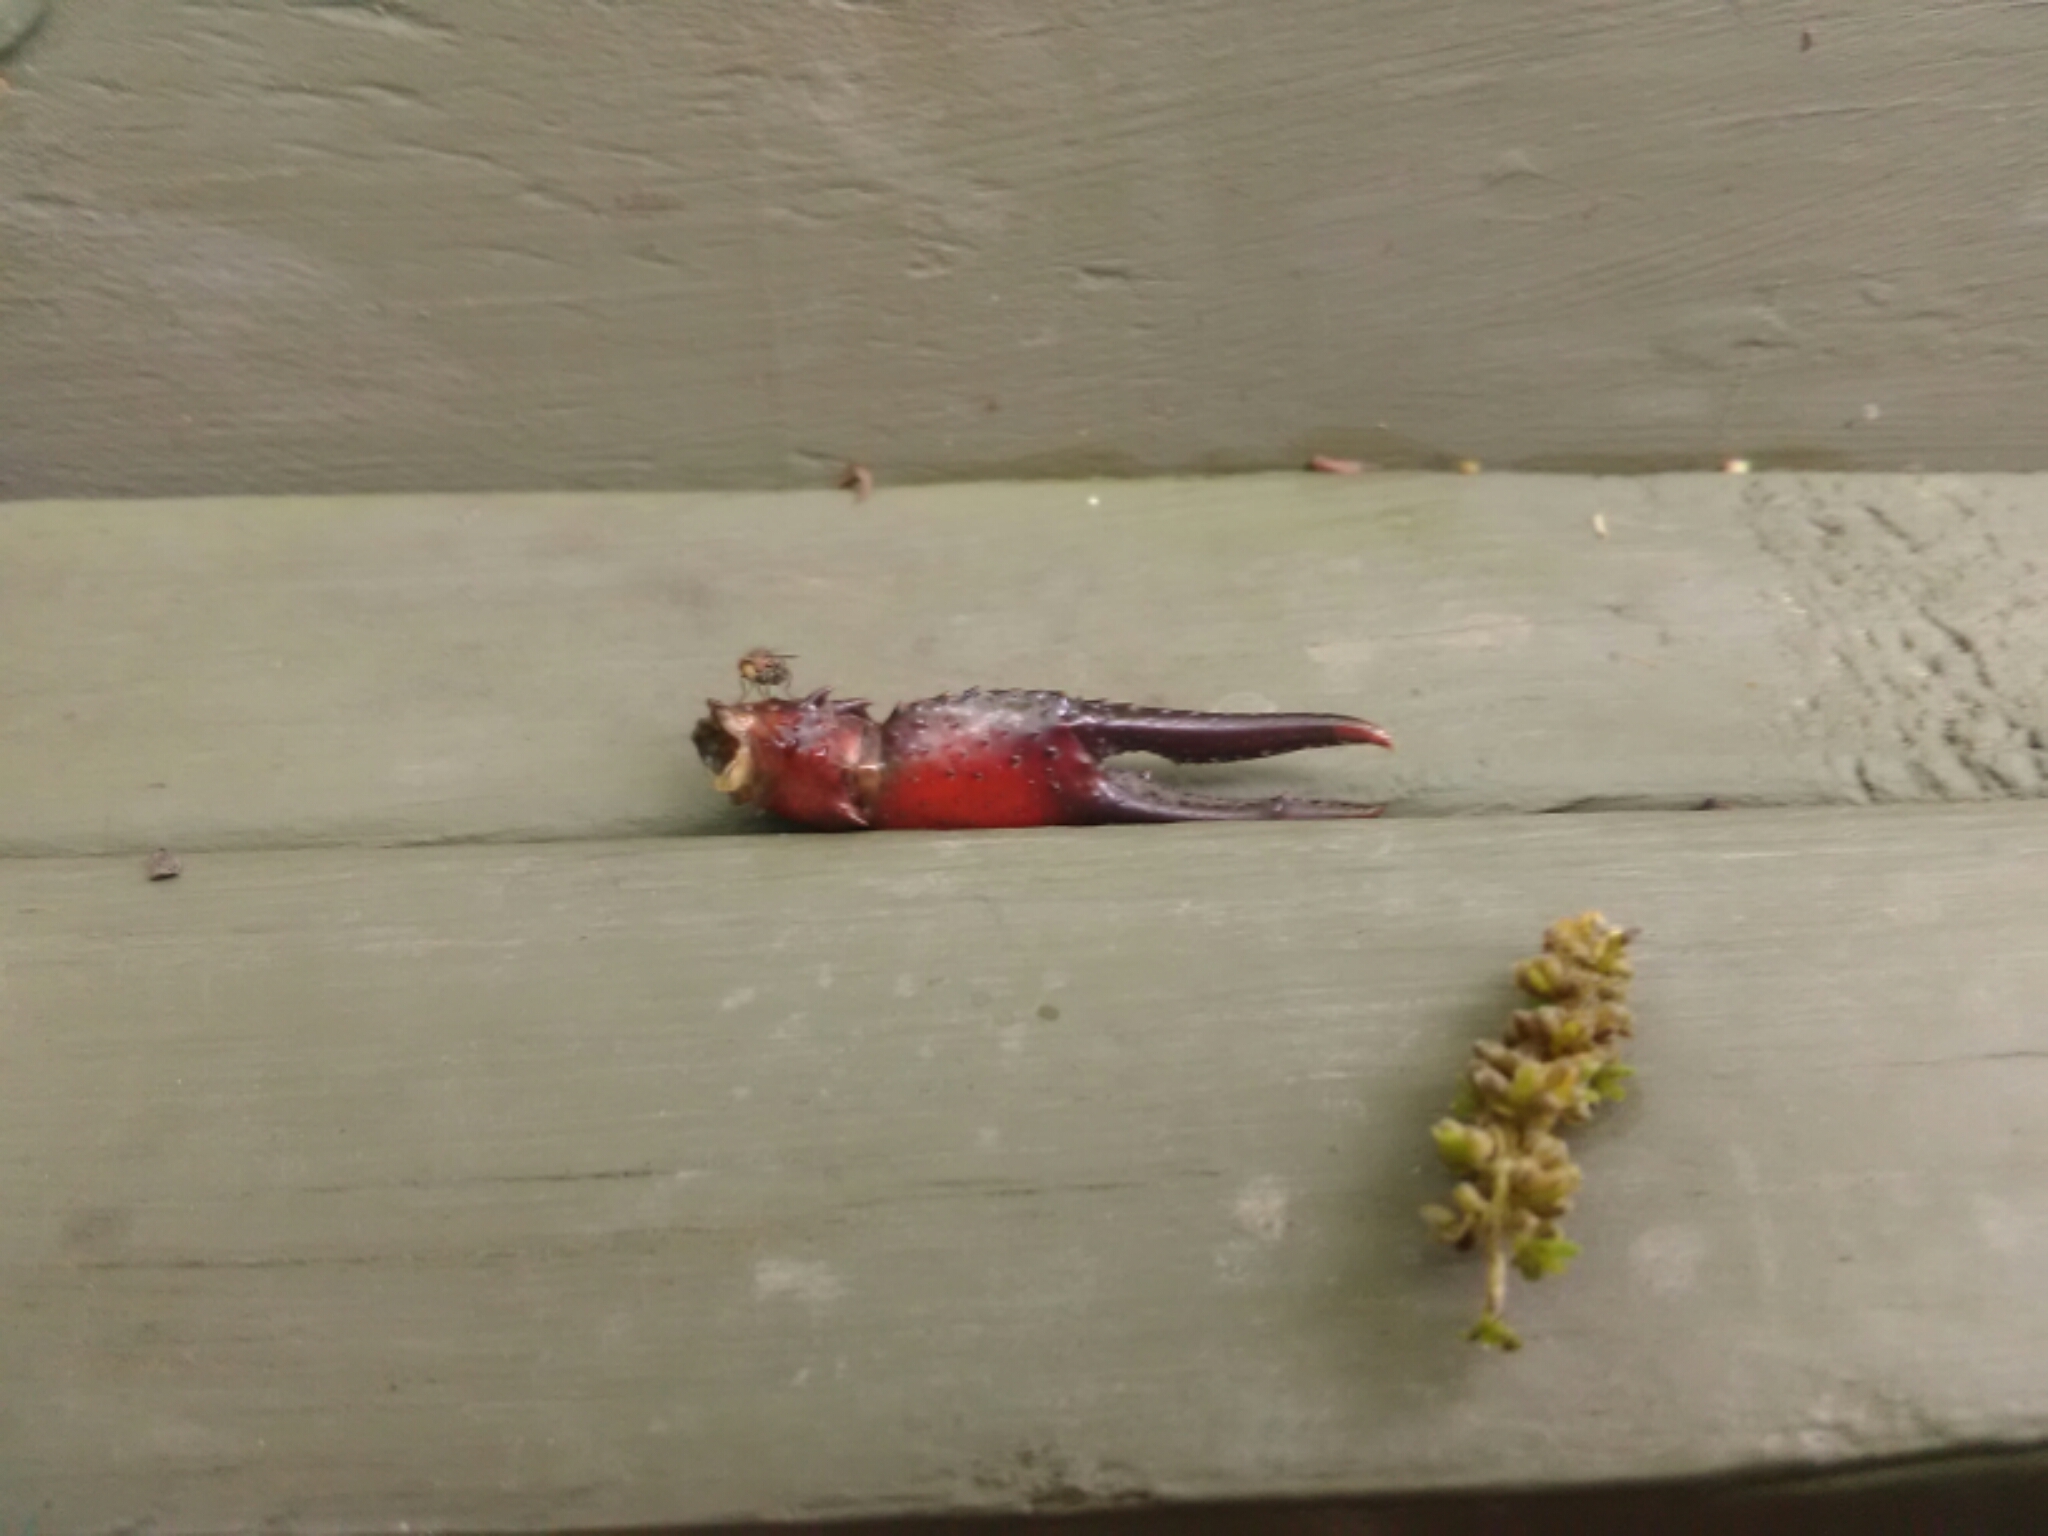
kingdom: Animalia
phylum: Arthropoda
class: Malacostraca
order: Decapoda
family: Cambaridae
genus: Procambarus
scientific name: Procambarus clarkii
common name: Red swamp crayfish
